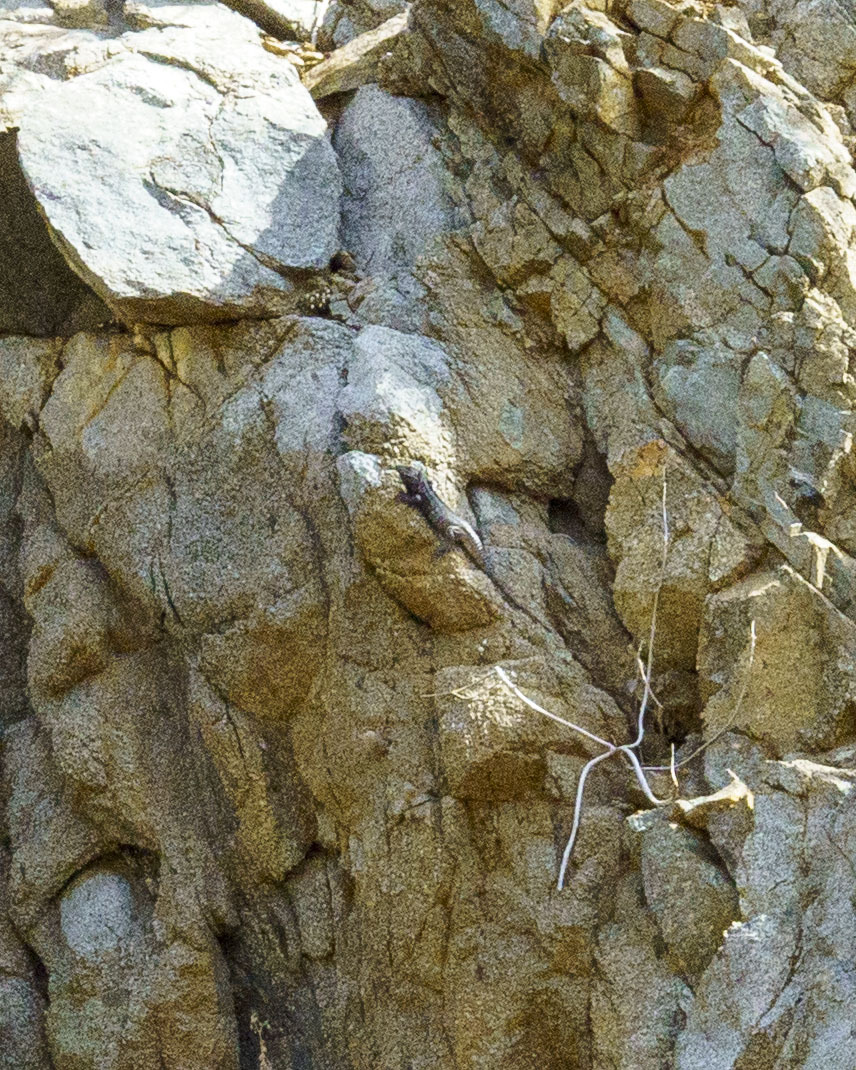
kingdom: Animalia
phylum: Chordata
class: Squamata
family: Iguanidae
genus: Ctenosaura
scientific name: Ctenosaura hemilopha
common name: Baja california spiny- tailed iguana
